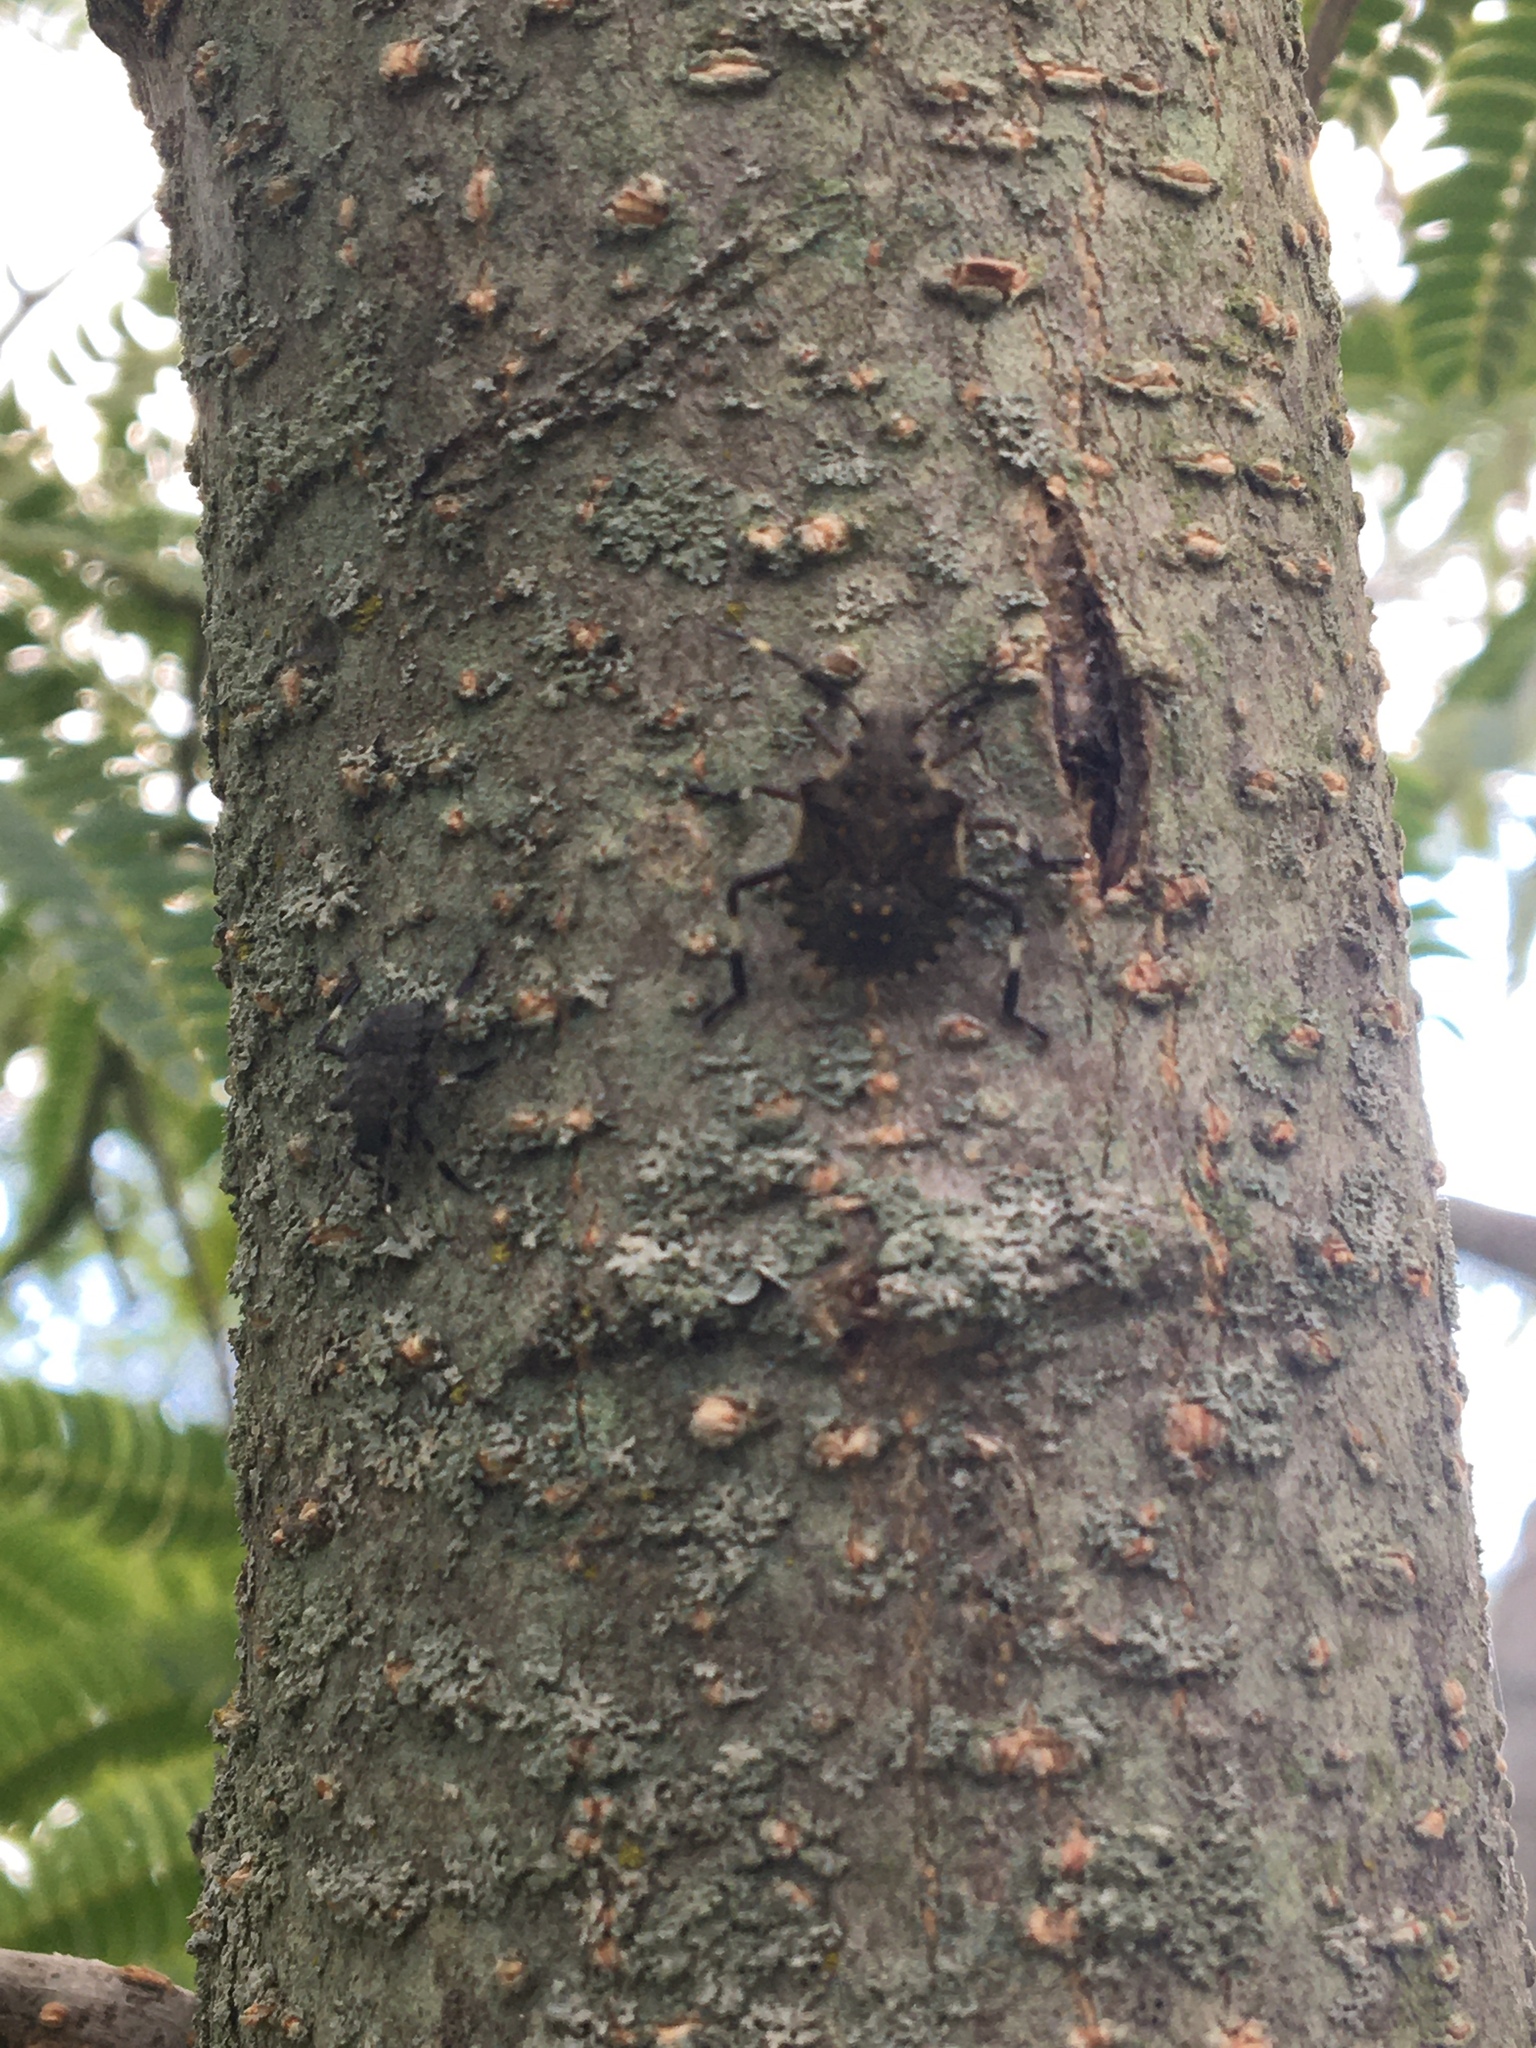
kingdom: Animalia
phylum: Arthropoda
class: Insecta
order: Hemiptera
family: Pentatomidae
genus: Halyomorpha
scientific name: Halyomorpha halys
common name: Brown marmorated stink bug
